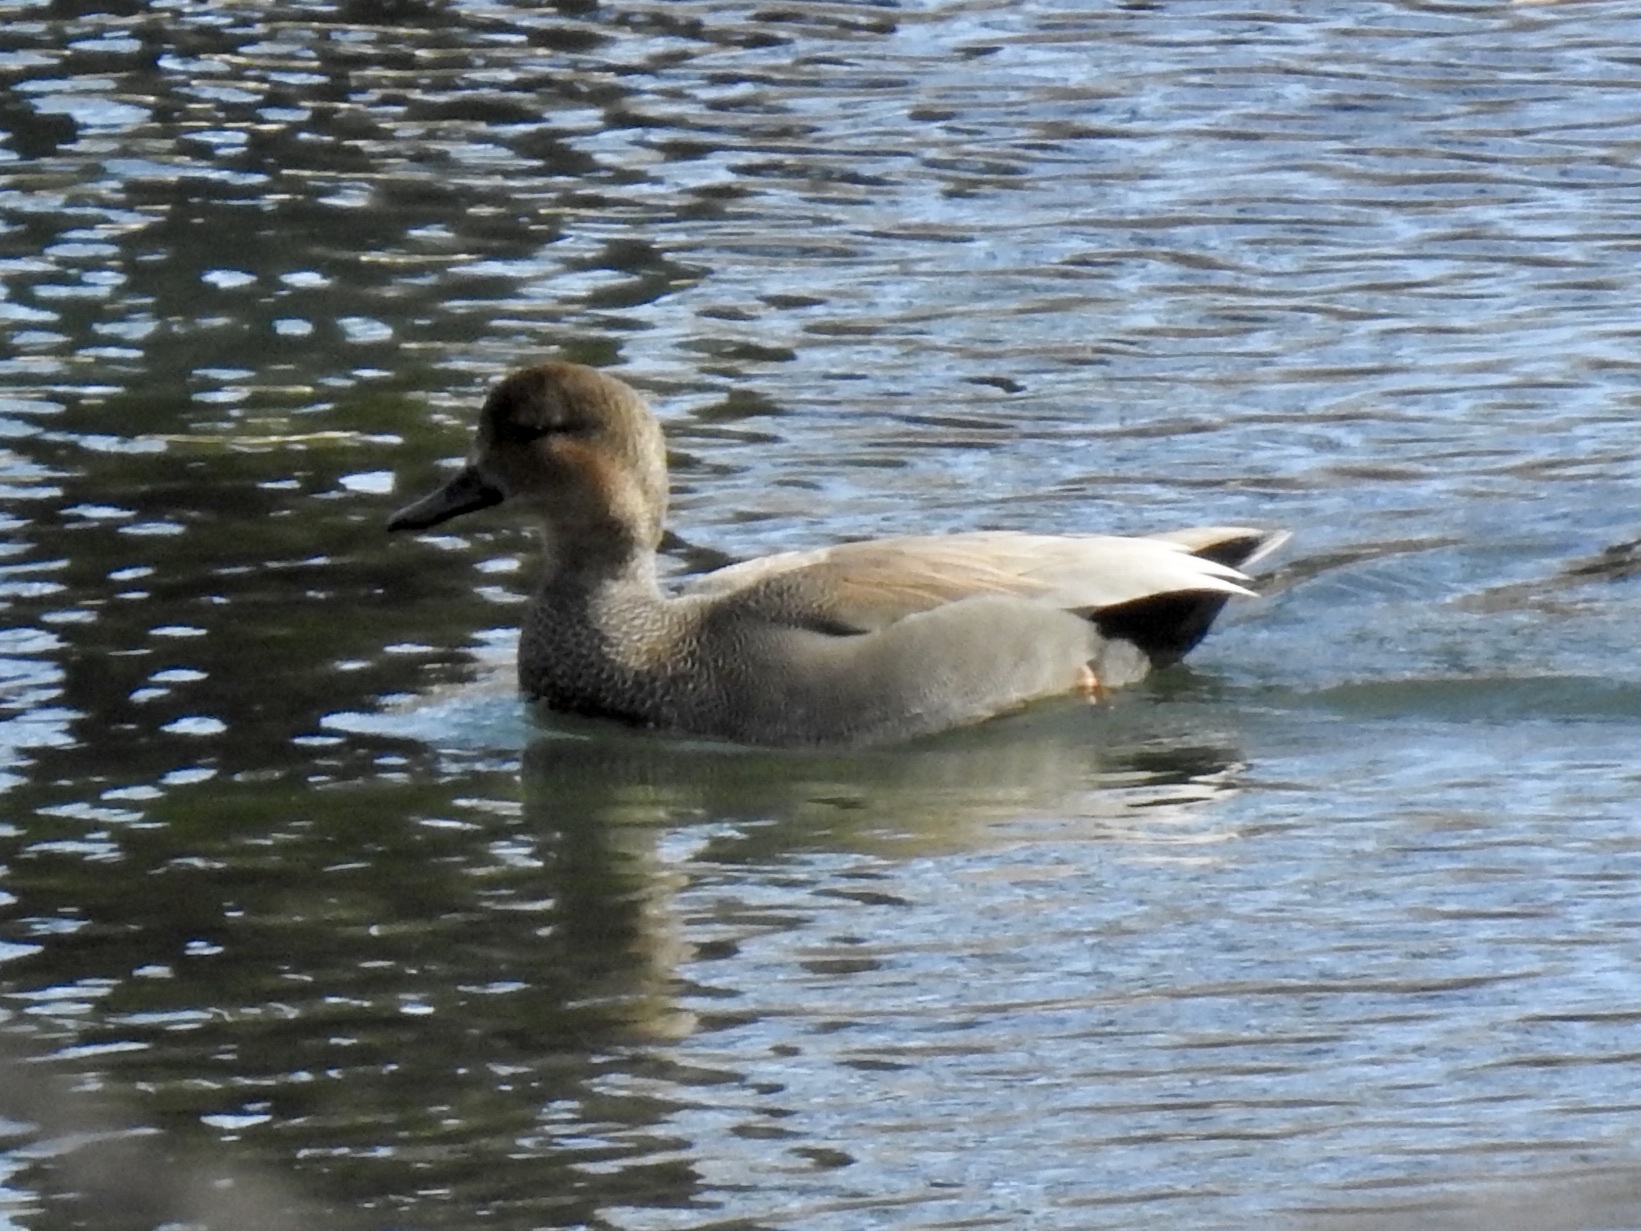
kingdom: Animalia
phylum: Chordata
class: Aves
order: Anseriformes
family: Anatidae
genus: Mareca
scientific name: Mareca strepera
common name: Gadwall
